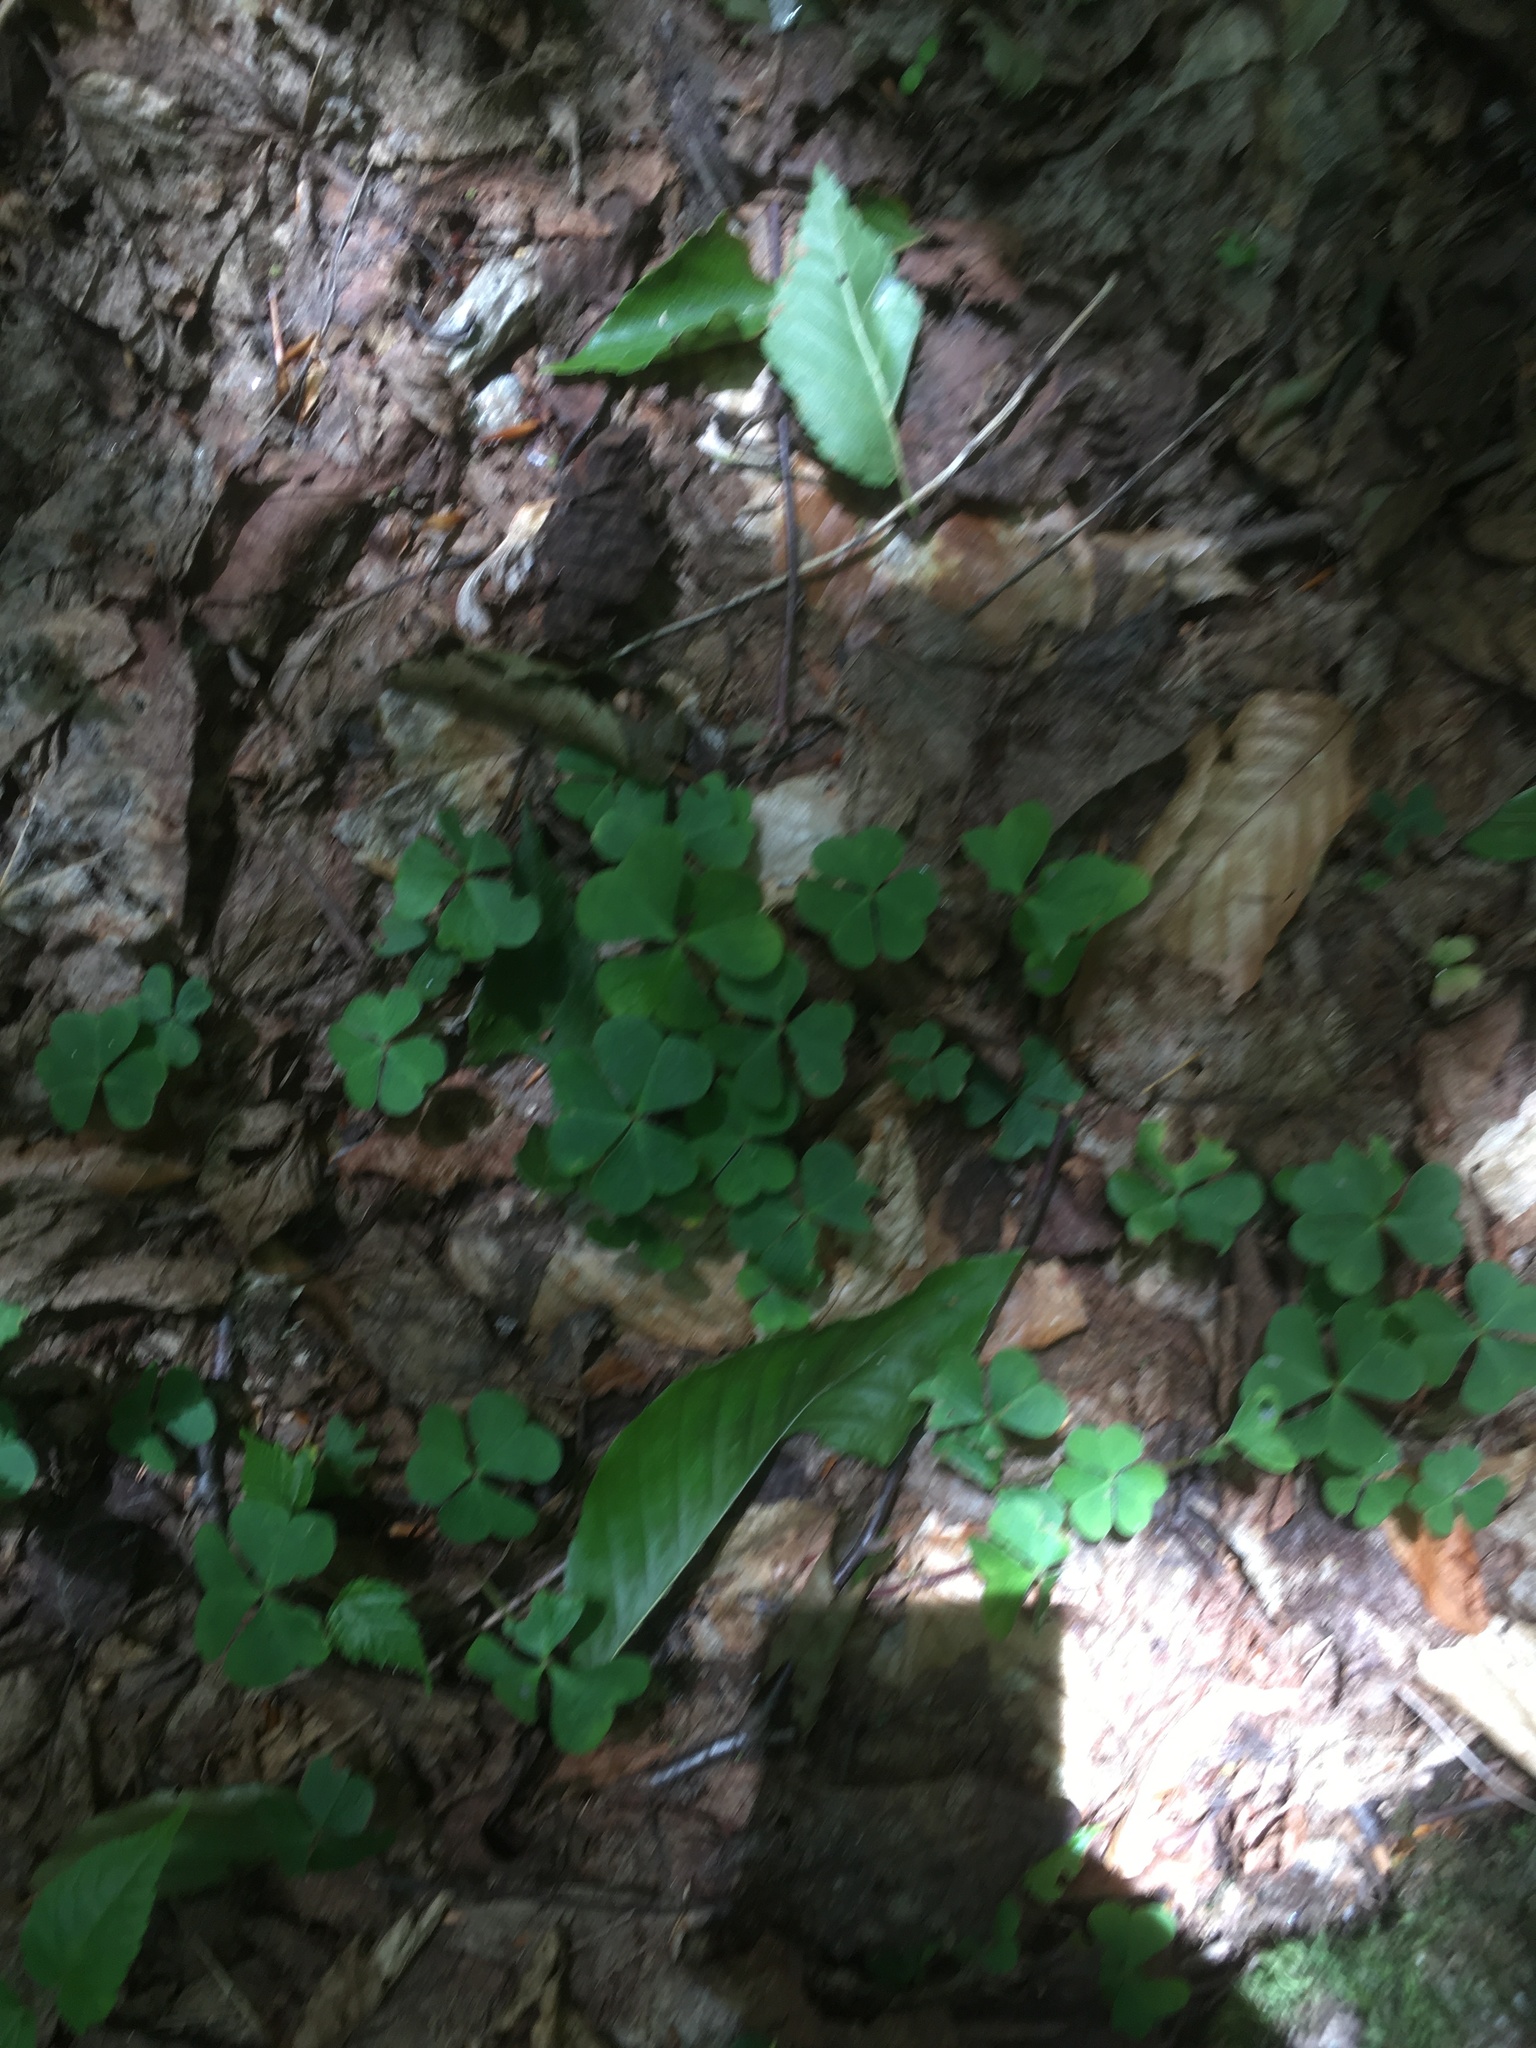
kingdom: Plantae
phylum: Tracheophyta
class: Magnoliopsida
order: Oxalidales
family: Oxalidaceae
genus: Oxalis
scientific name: Oxalis montana
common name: American wood-sorrel
